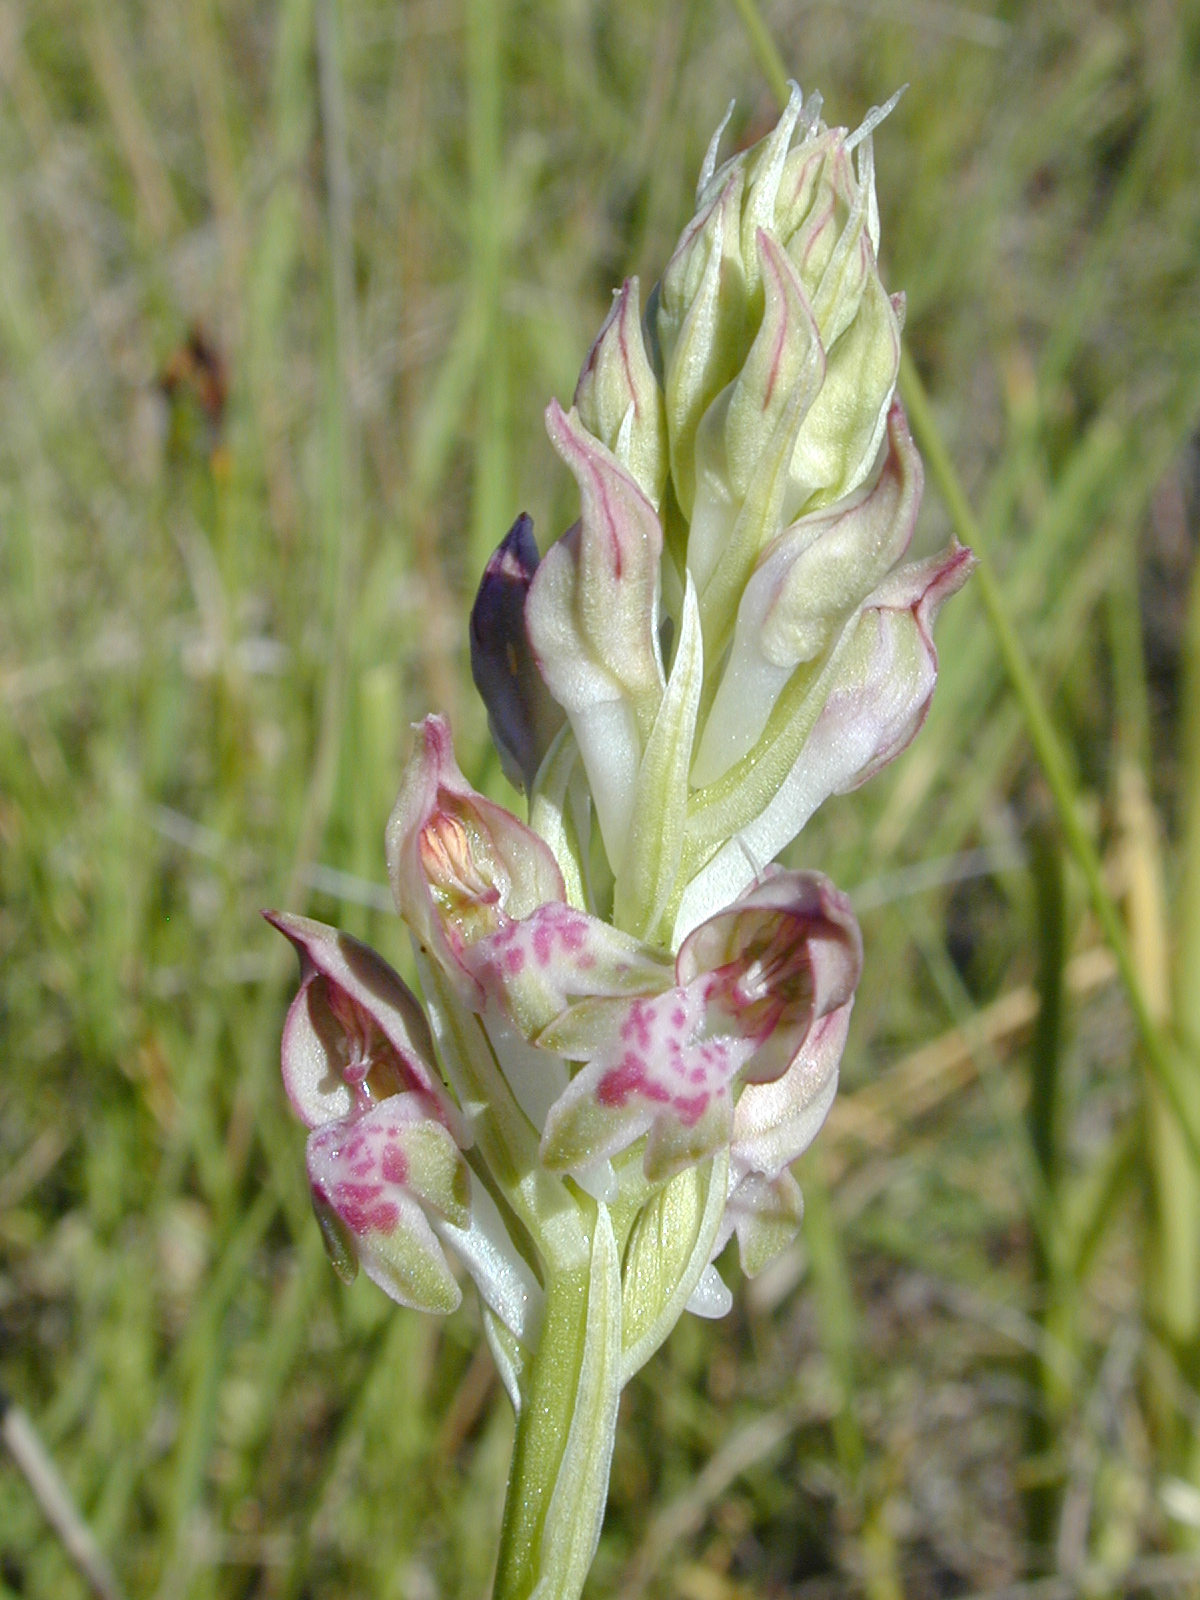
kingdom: Plantae
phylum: Tracheophyta
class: Liliopsida
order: Asparagales
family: Orchidaceae
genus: Anacamptis
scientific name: Anacamptis coriophora
